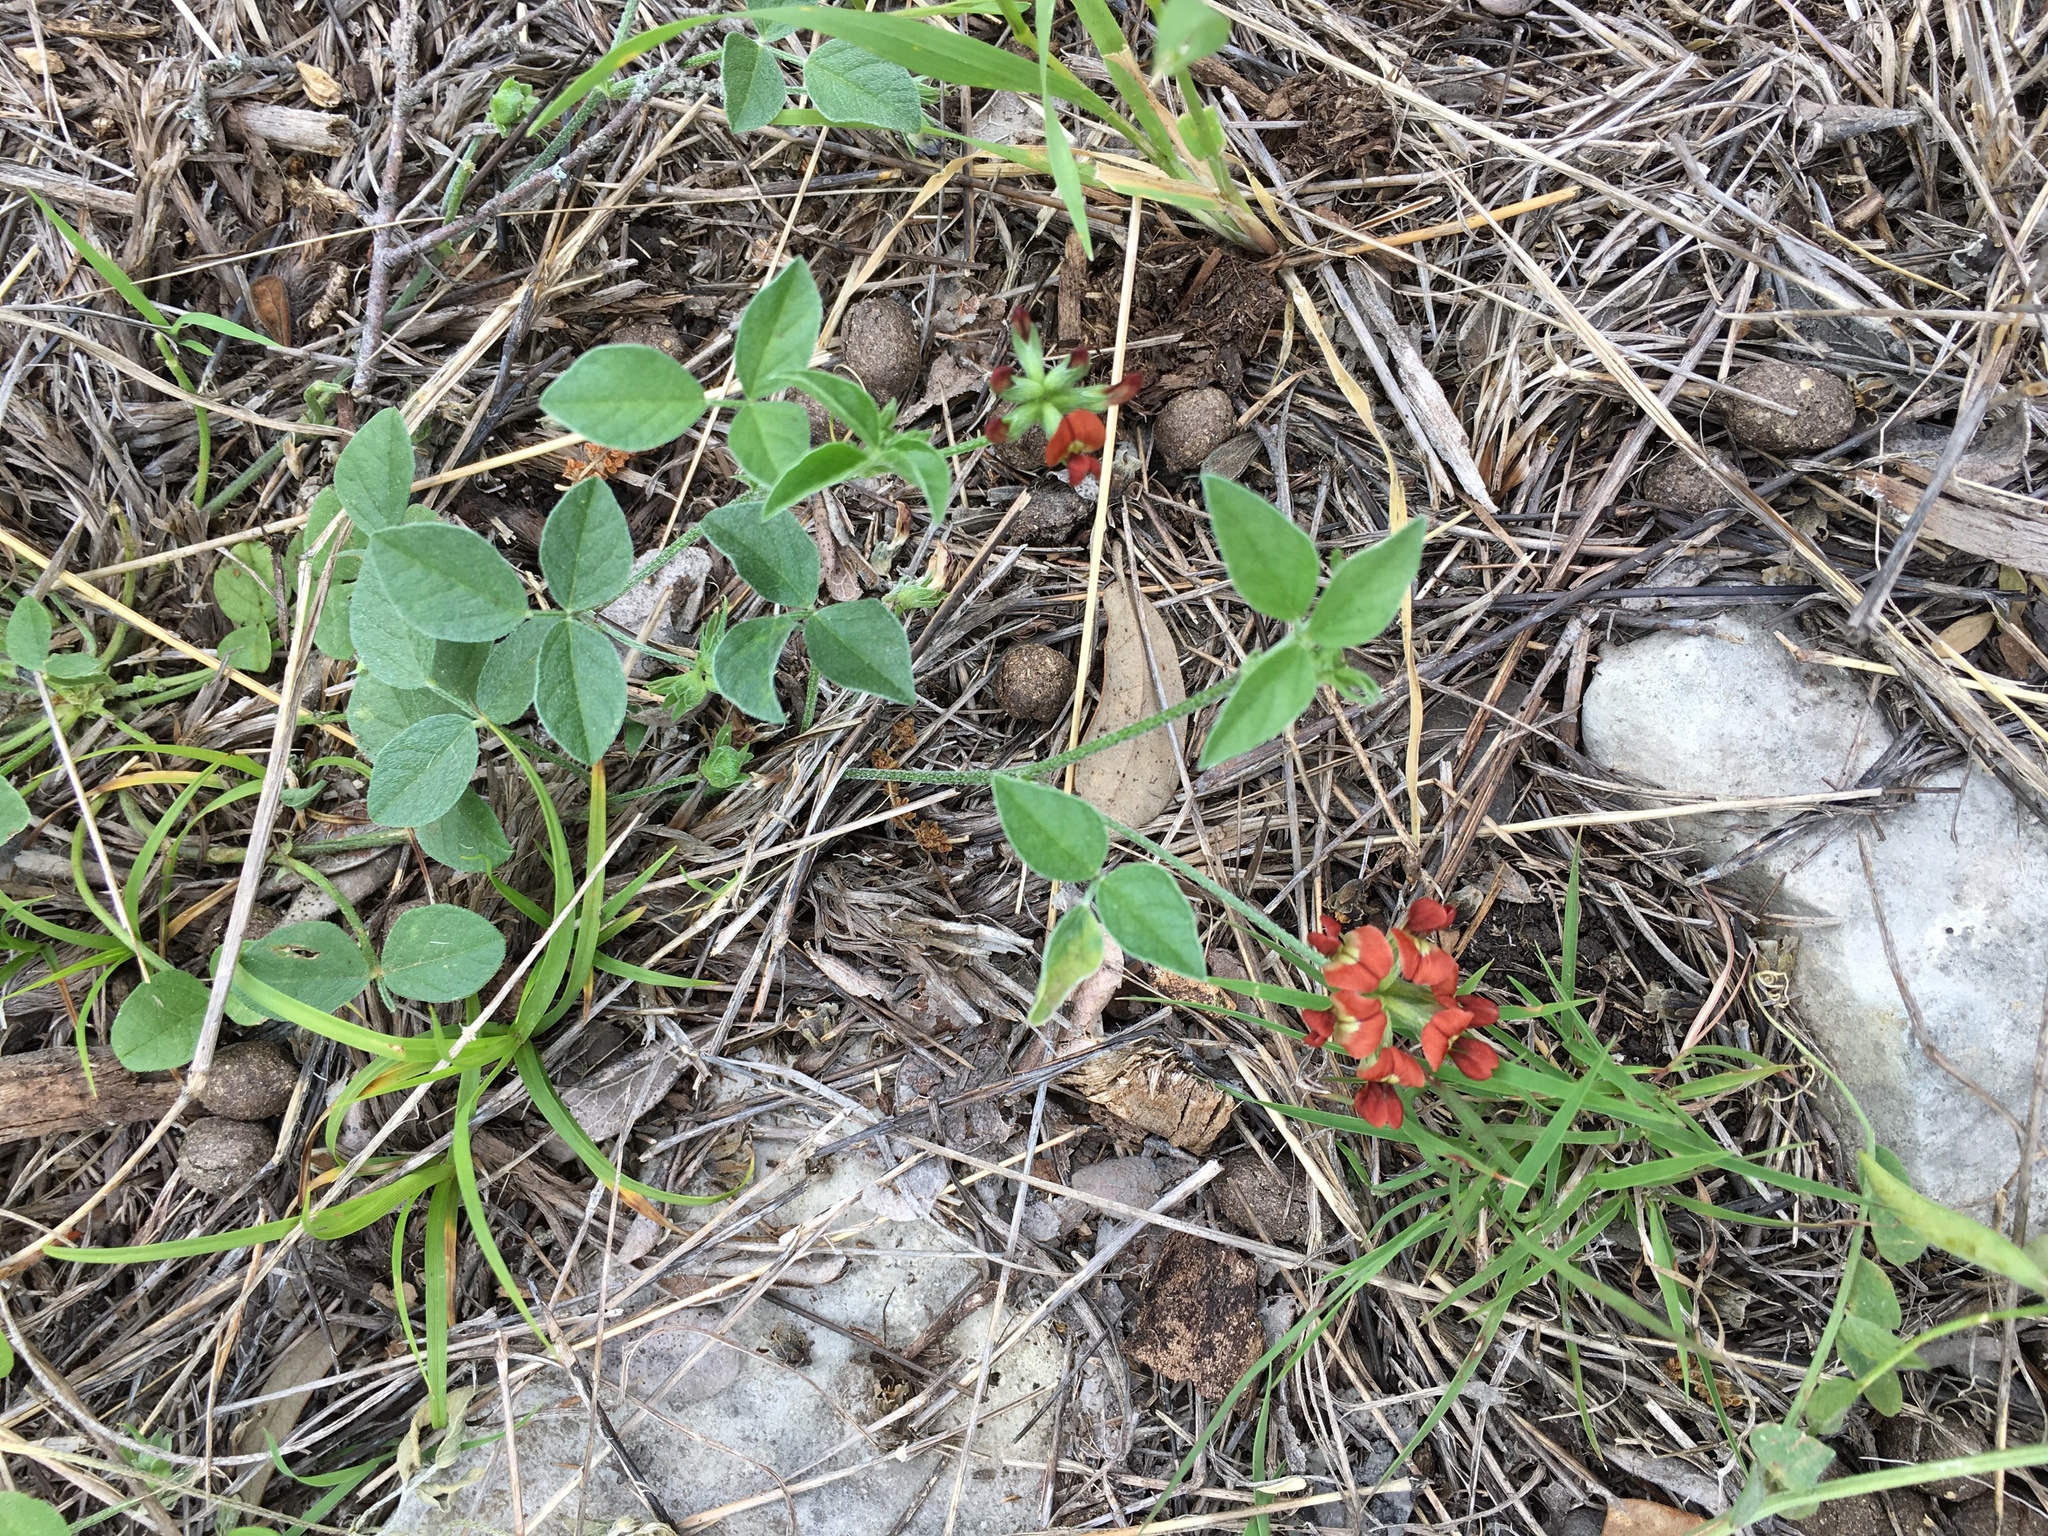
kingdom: Plantae
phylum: Tracheophyta
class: Magnoliopsida
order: Fabales
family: Fabaceae
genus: Pediomelum
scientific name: Pediomelum rhombifolium
